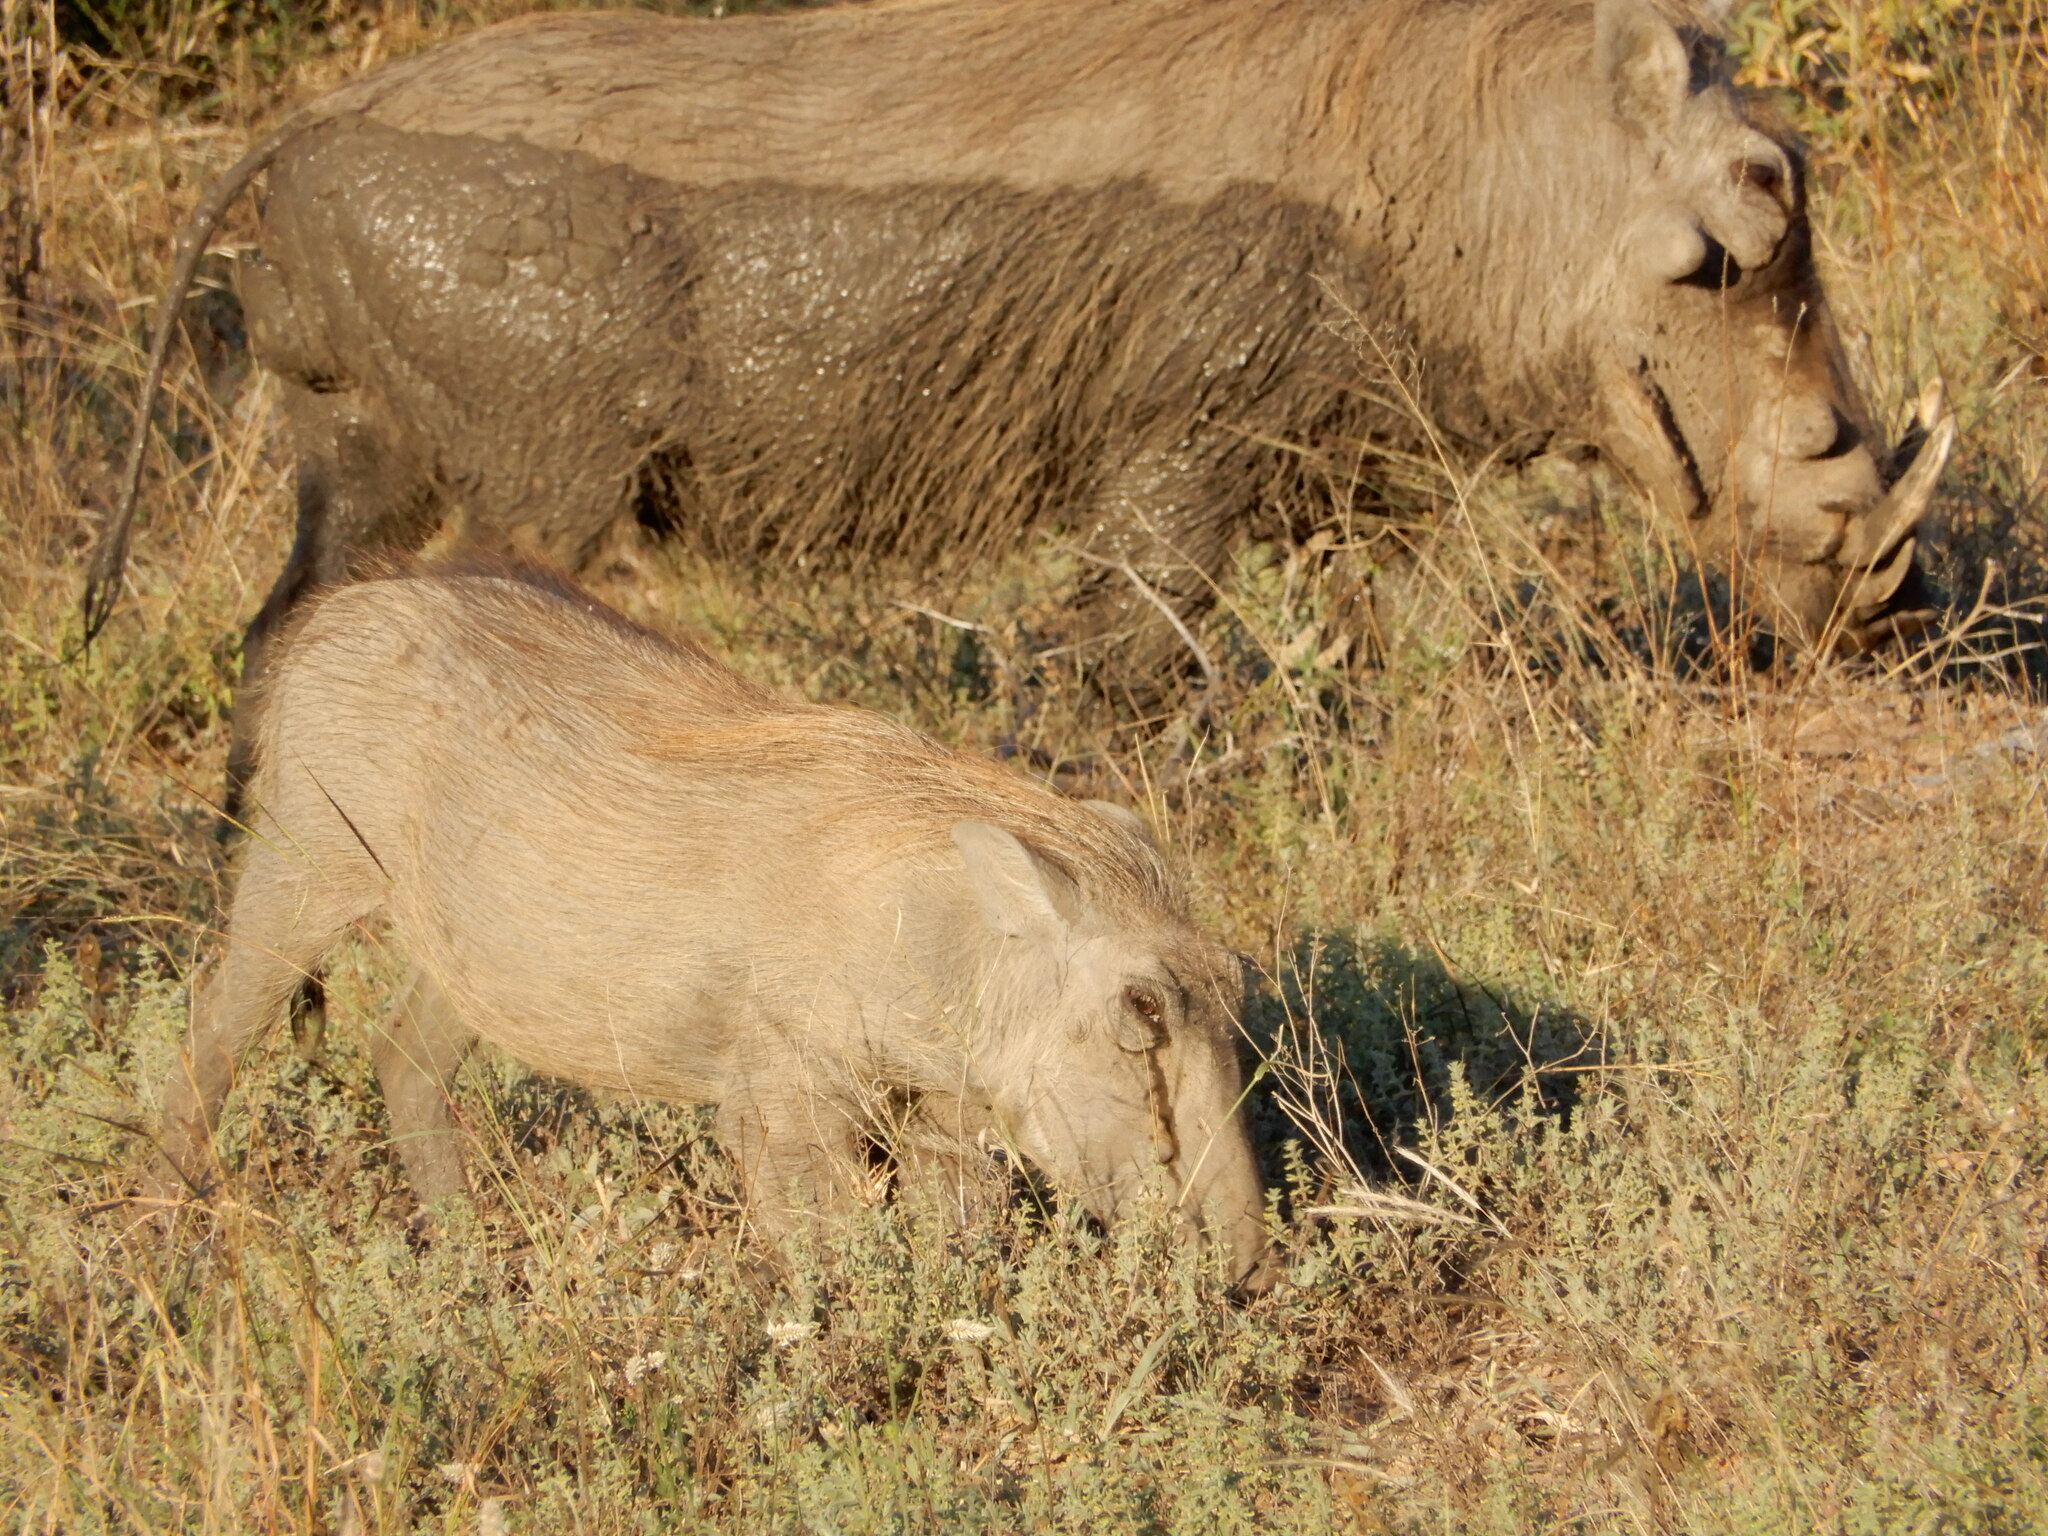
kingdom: Animalia
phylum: Chordata
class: Mammalia
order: Artiodactyla
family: Suidae
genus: Phacochoerus
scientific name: Phacochoerus africanus
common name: Common warthog
